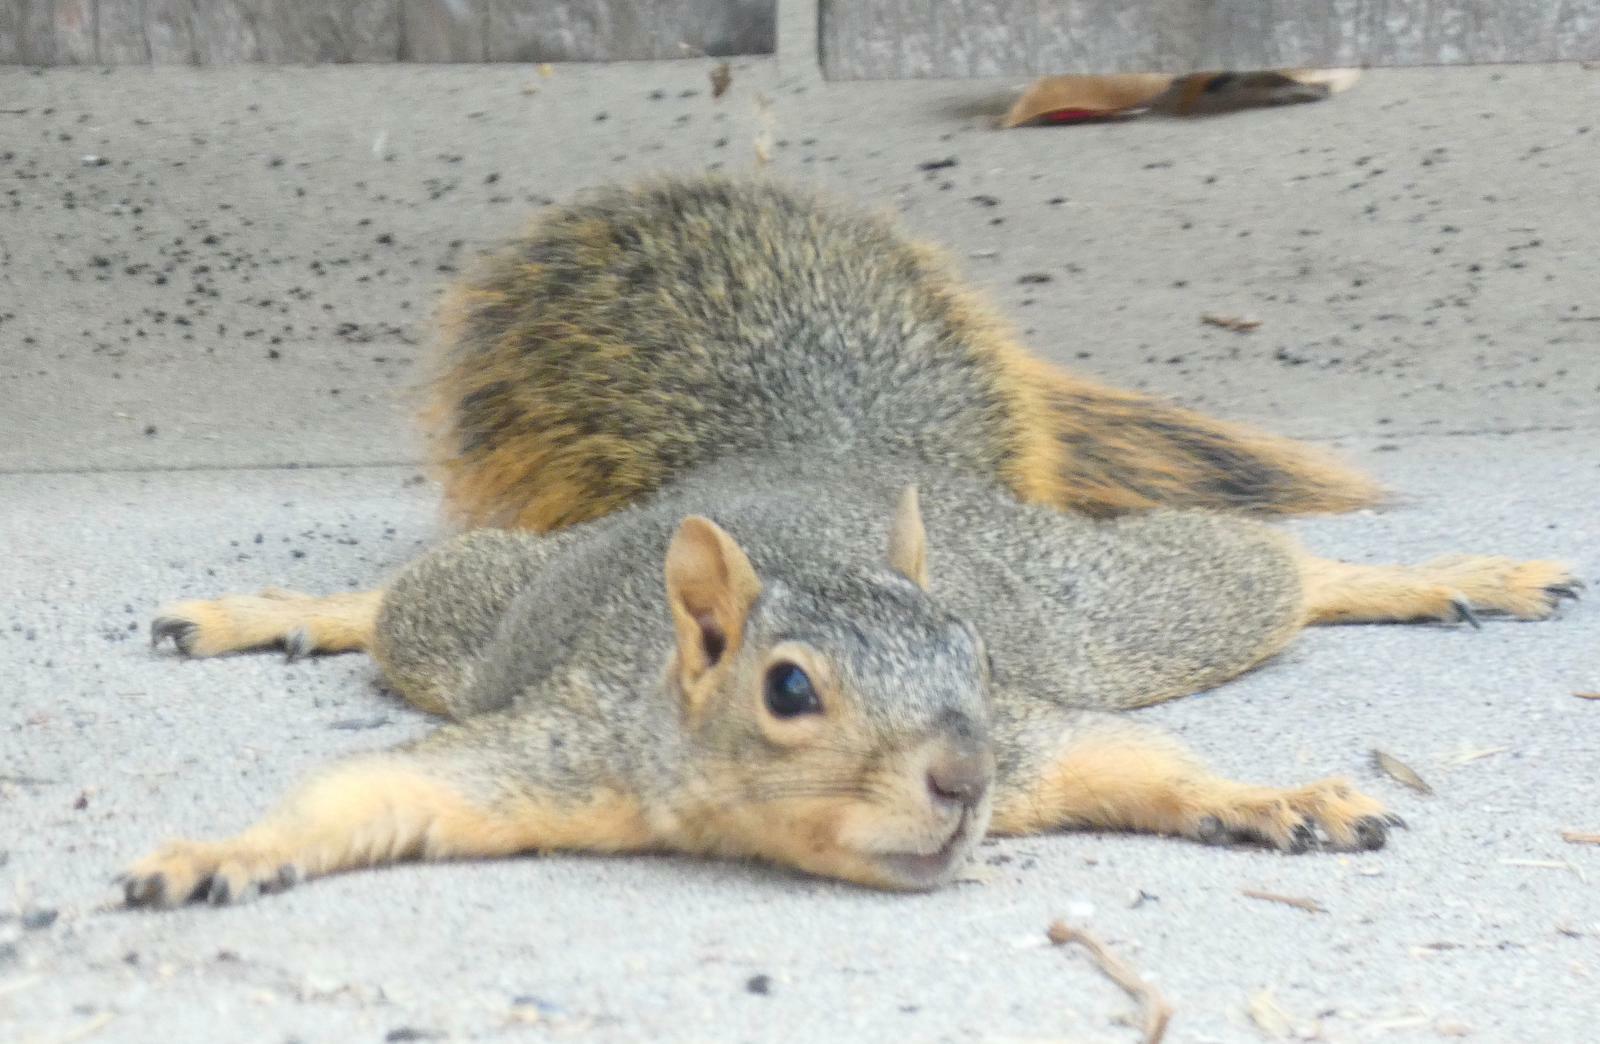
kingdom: Animalia
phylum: Chordata
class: Mammalia
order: Rodentia
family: Sciuridae
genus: Sciurus
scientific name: Sciurus niger
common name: Fox squirrel
